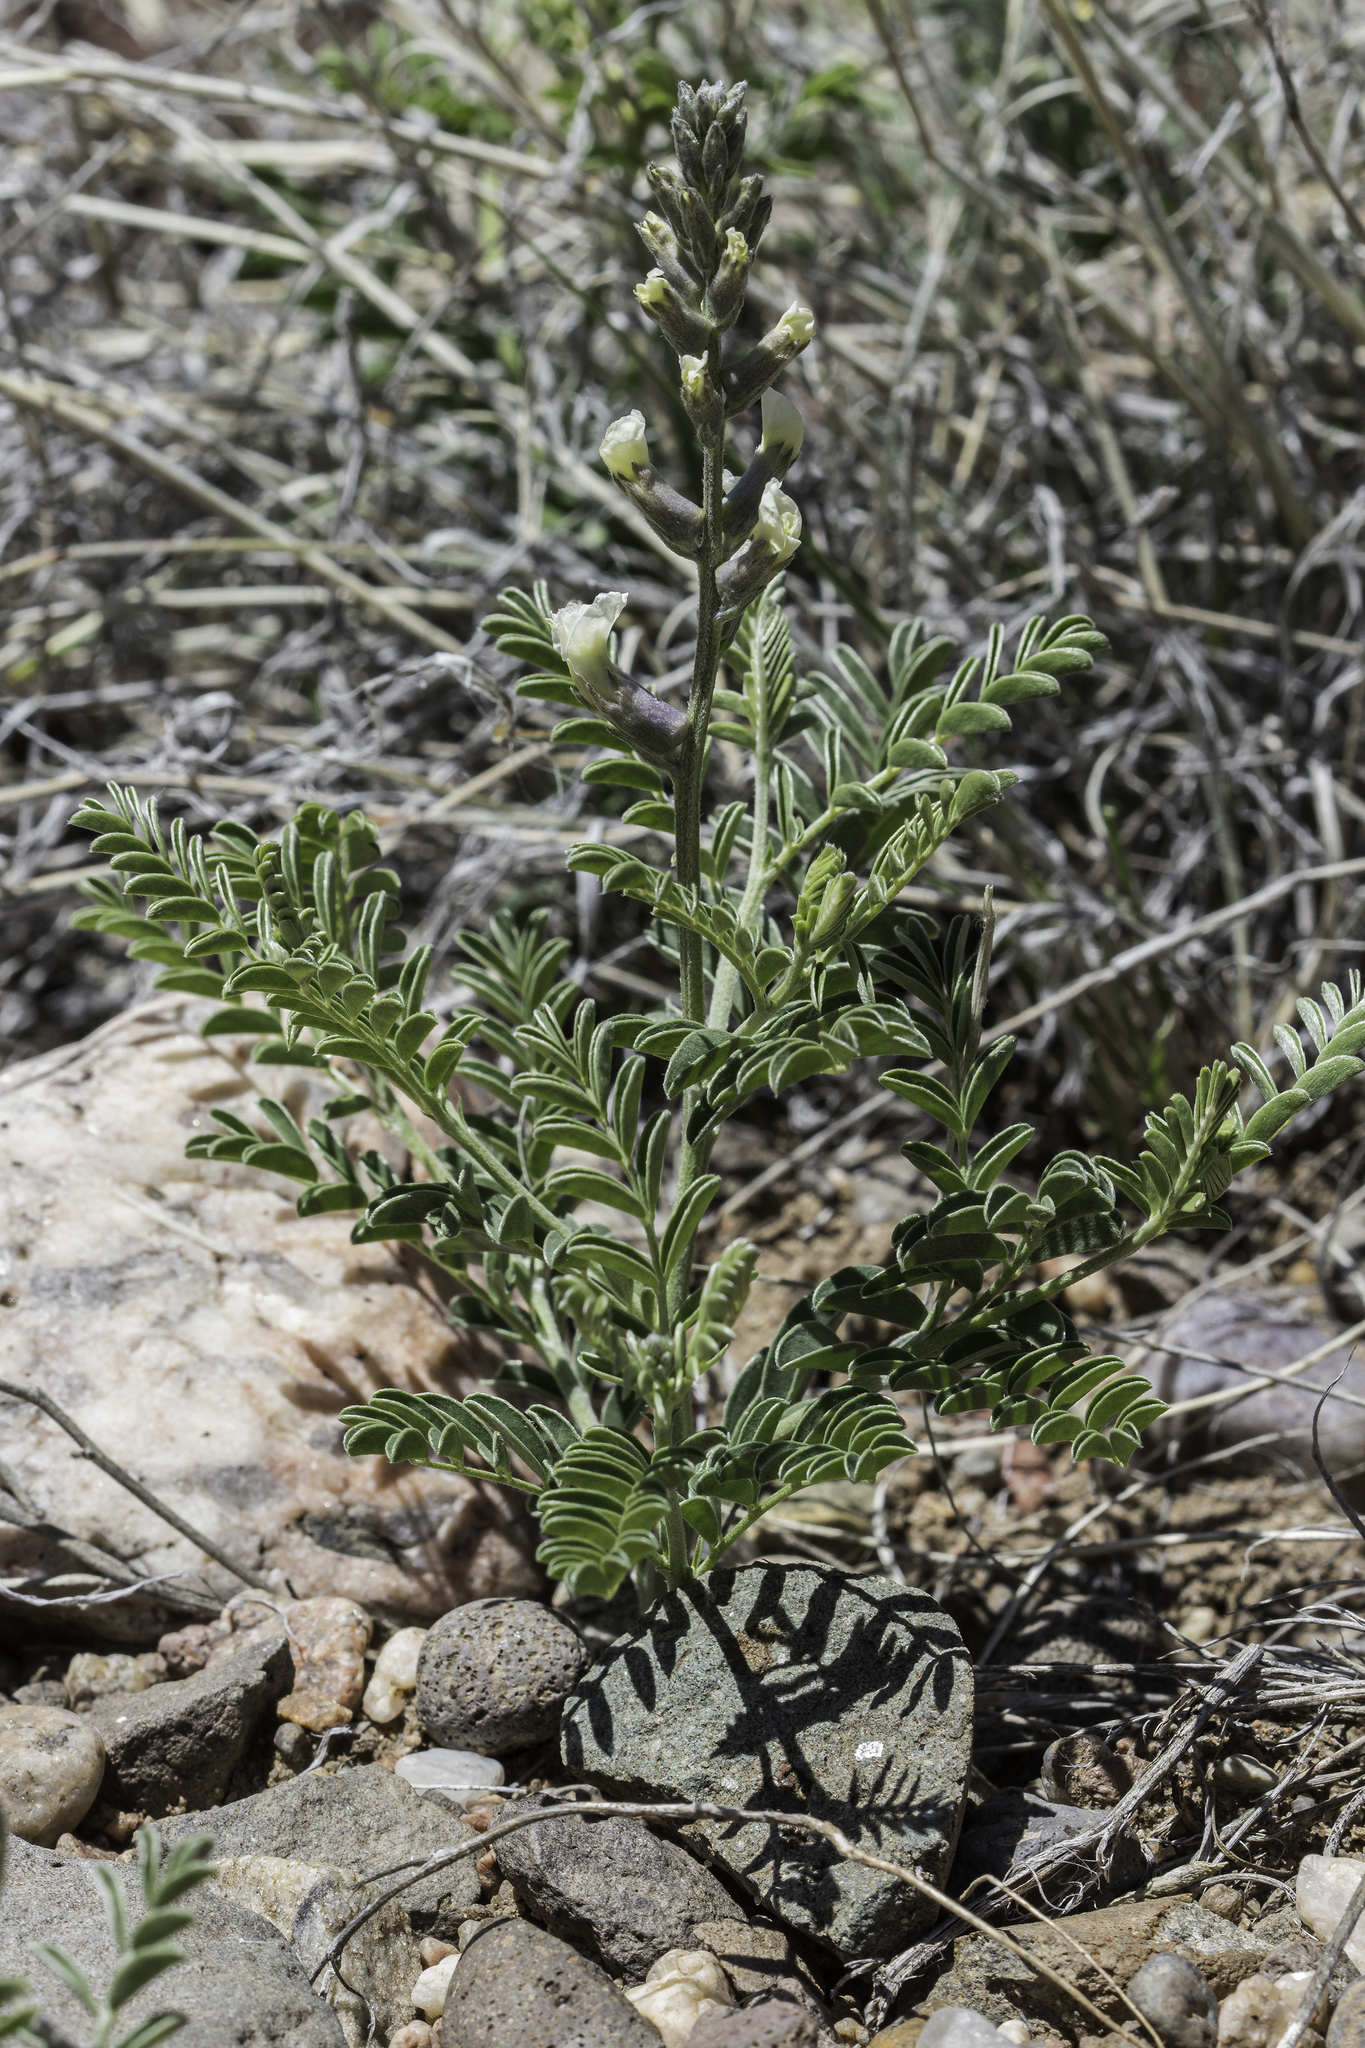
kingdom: Plantae
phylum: Tracheophyta
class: Magnoliopsida
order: Fabales
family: Fabaceae
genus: Sophora
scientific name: Sophora nuttalliana
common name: Silky sophora
